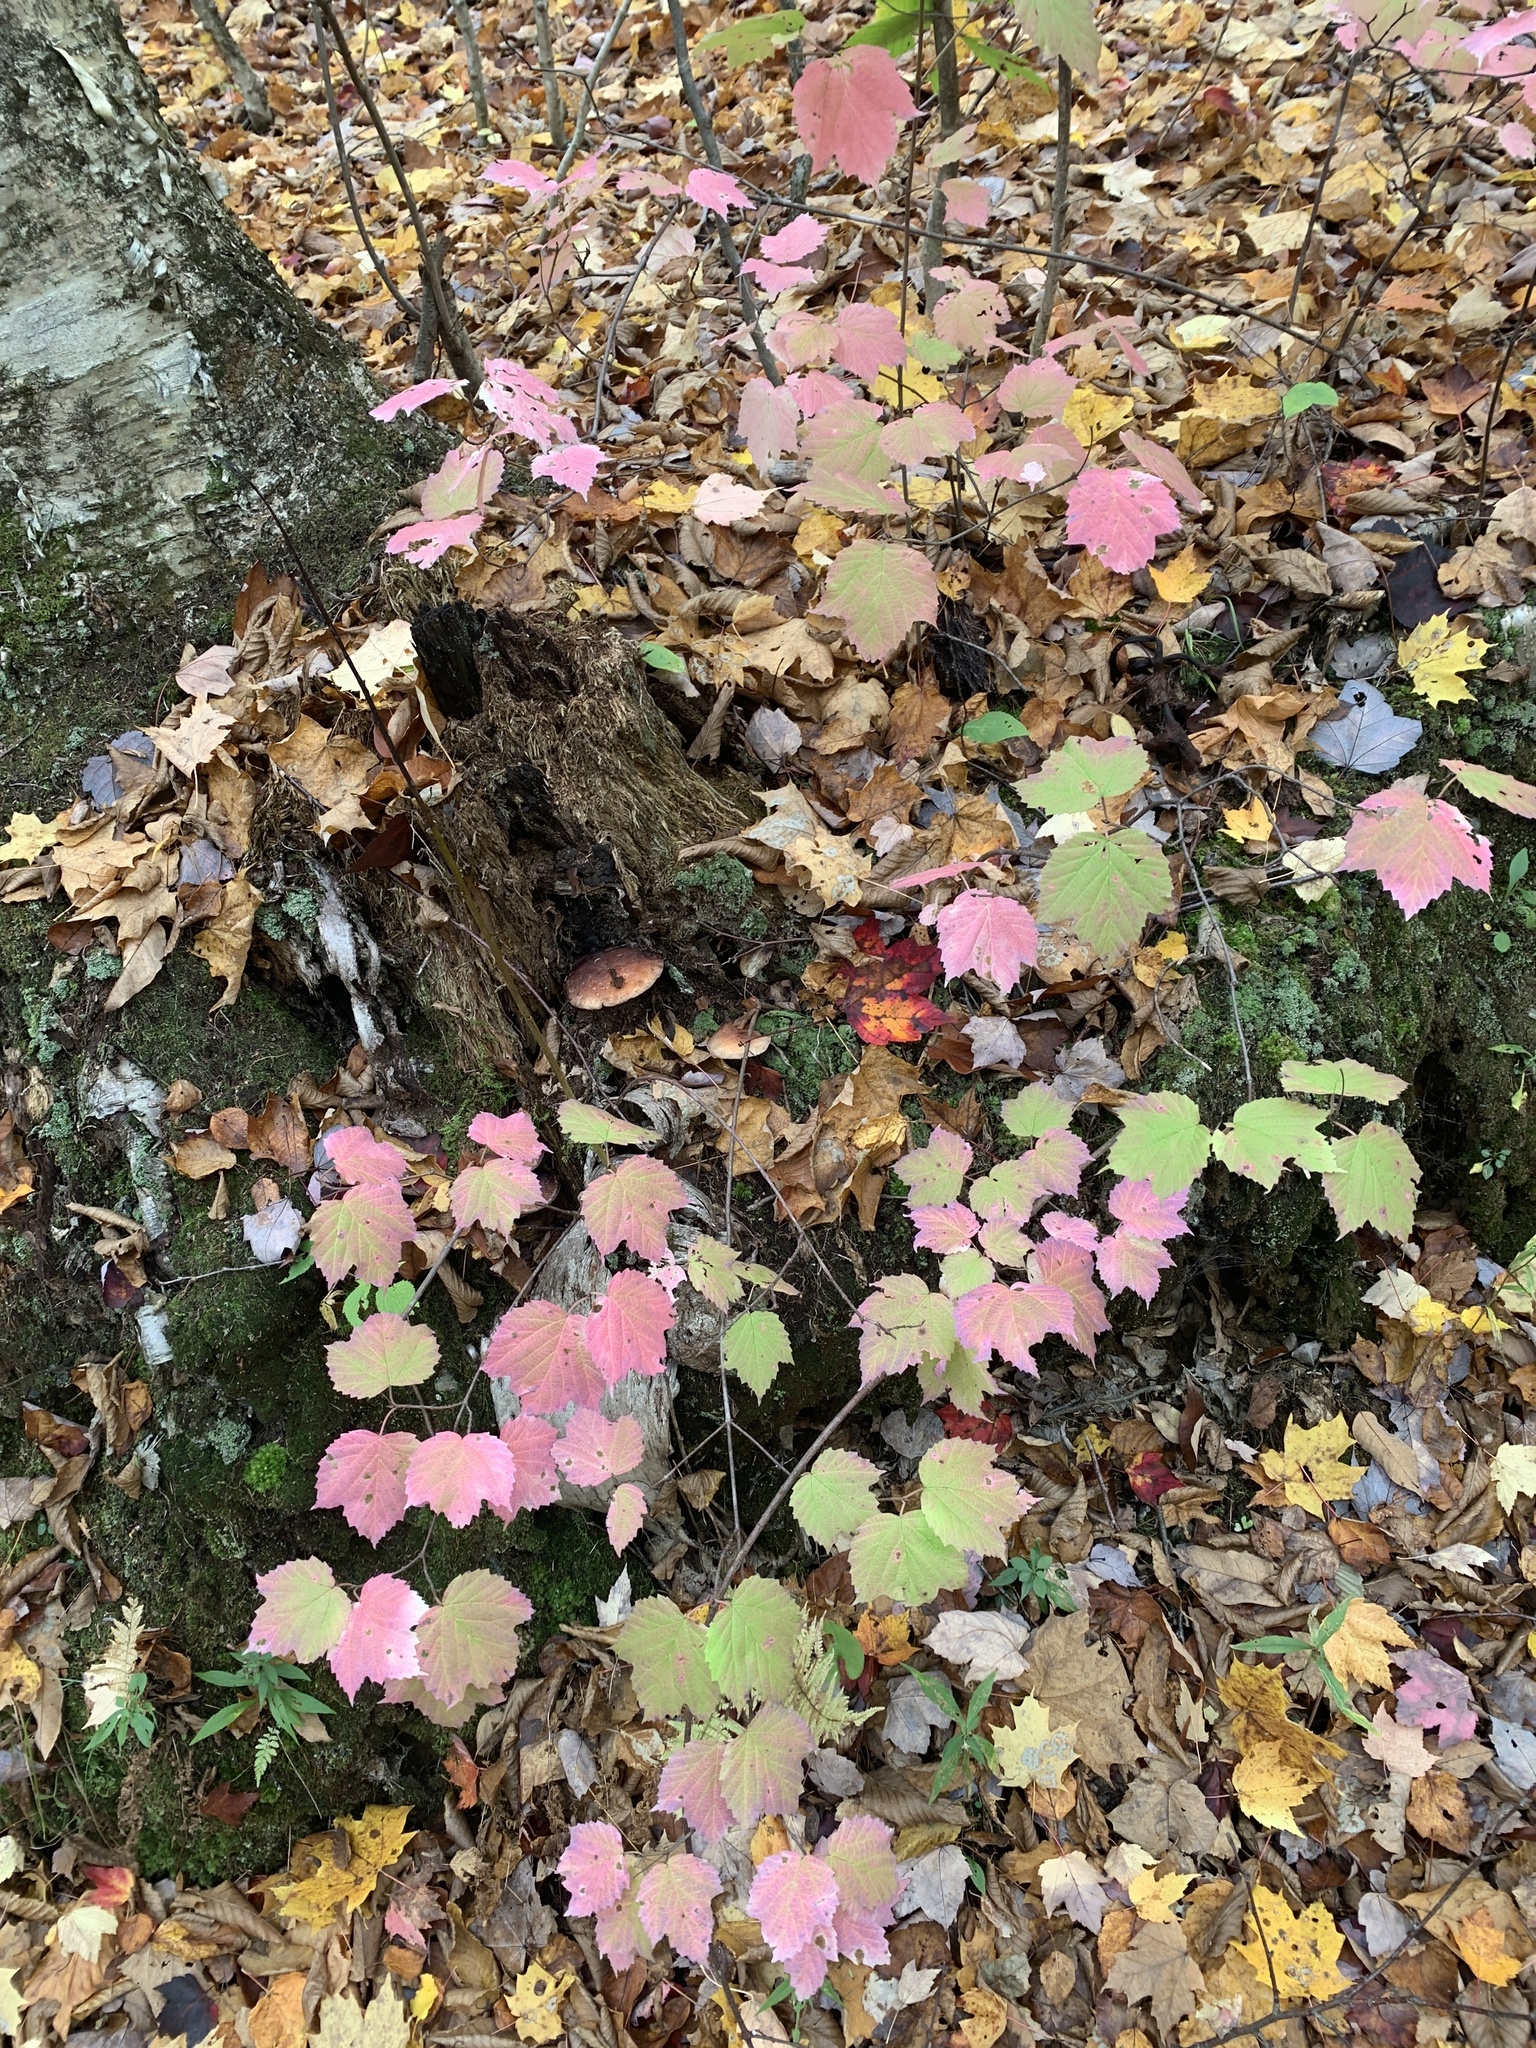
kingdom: Plantae
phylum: Tracheophyta
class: Magnoliopsida
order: Dipsacales
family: Viburnaceae
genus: Viburnum
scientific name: Viburnum acerifolium
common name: Dockmackie
